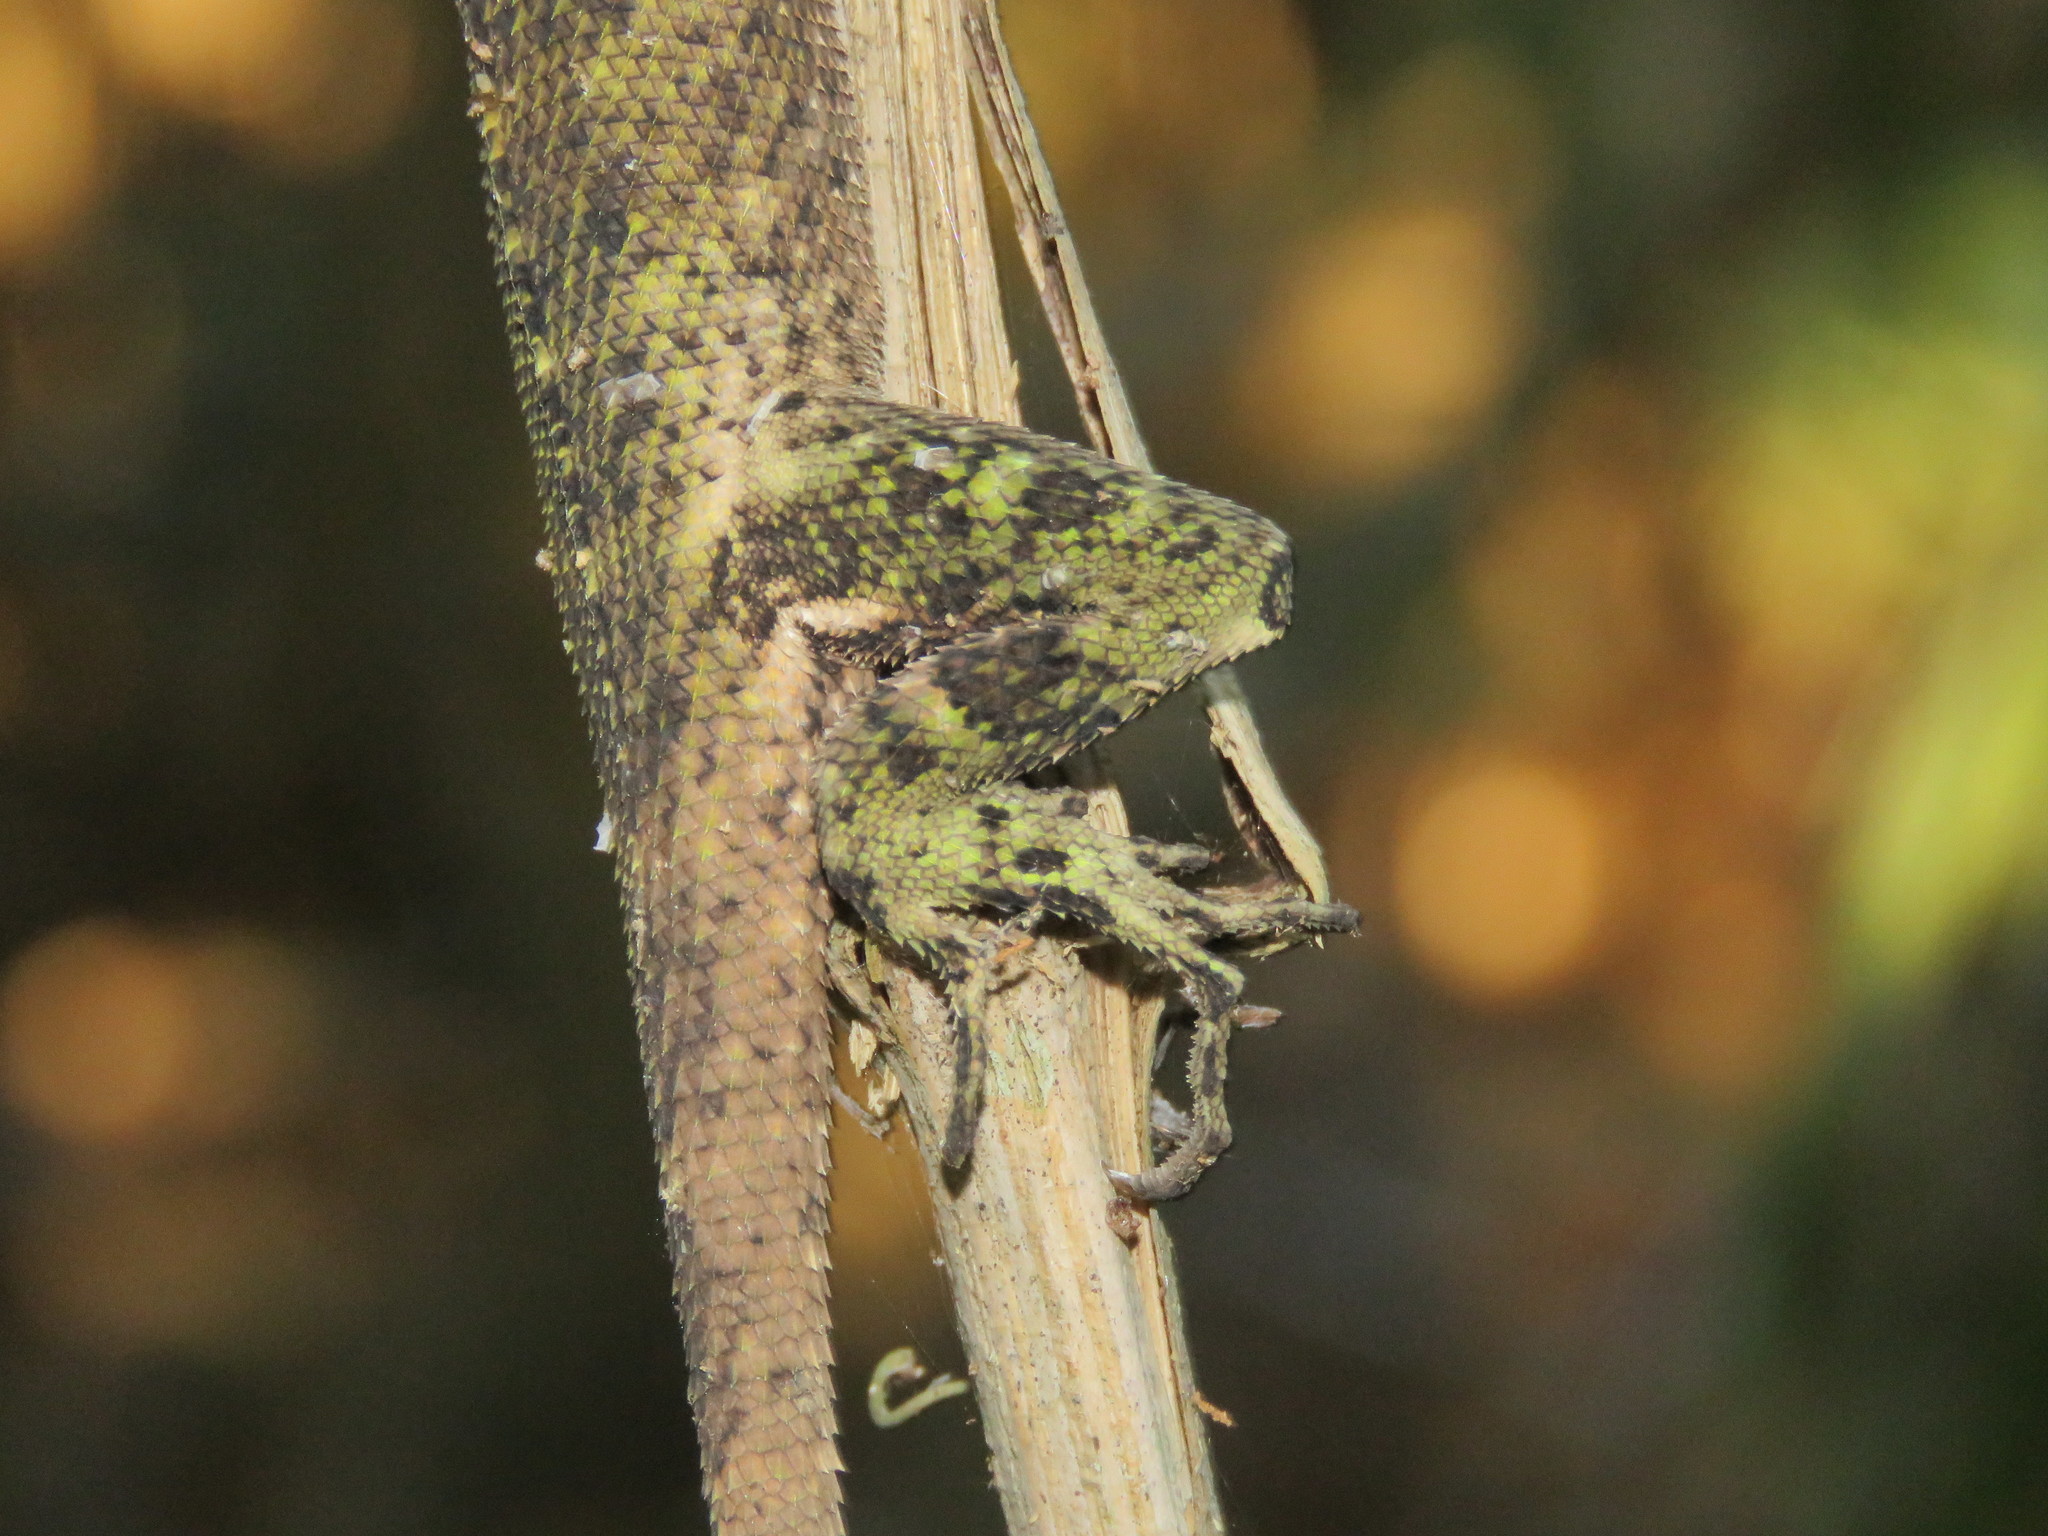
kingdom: Animalia
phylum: Chordata
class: Squamata
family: Tropiduridae
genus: Plica
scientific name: Plica umbra
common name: Harlequin racerunner
